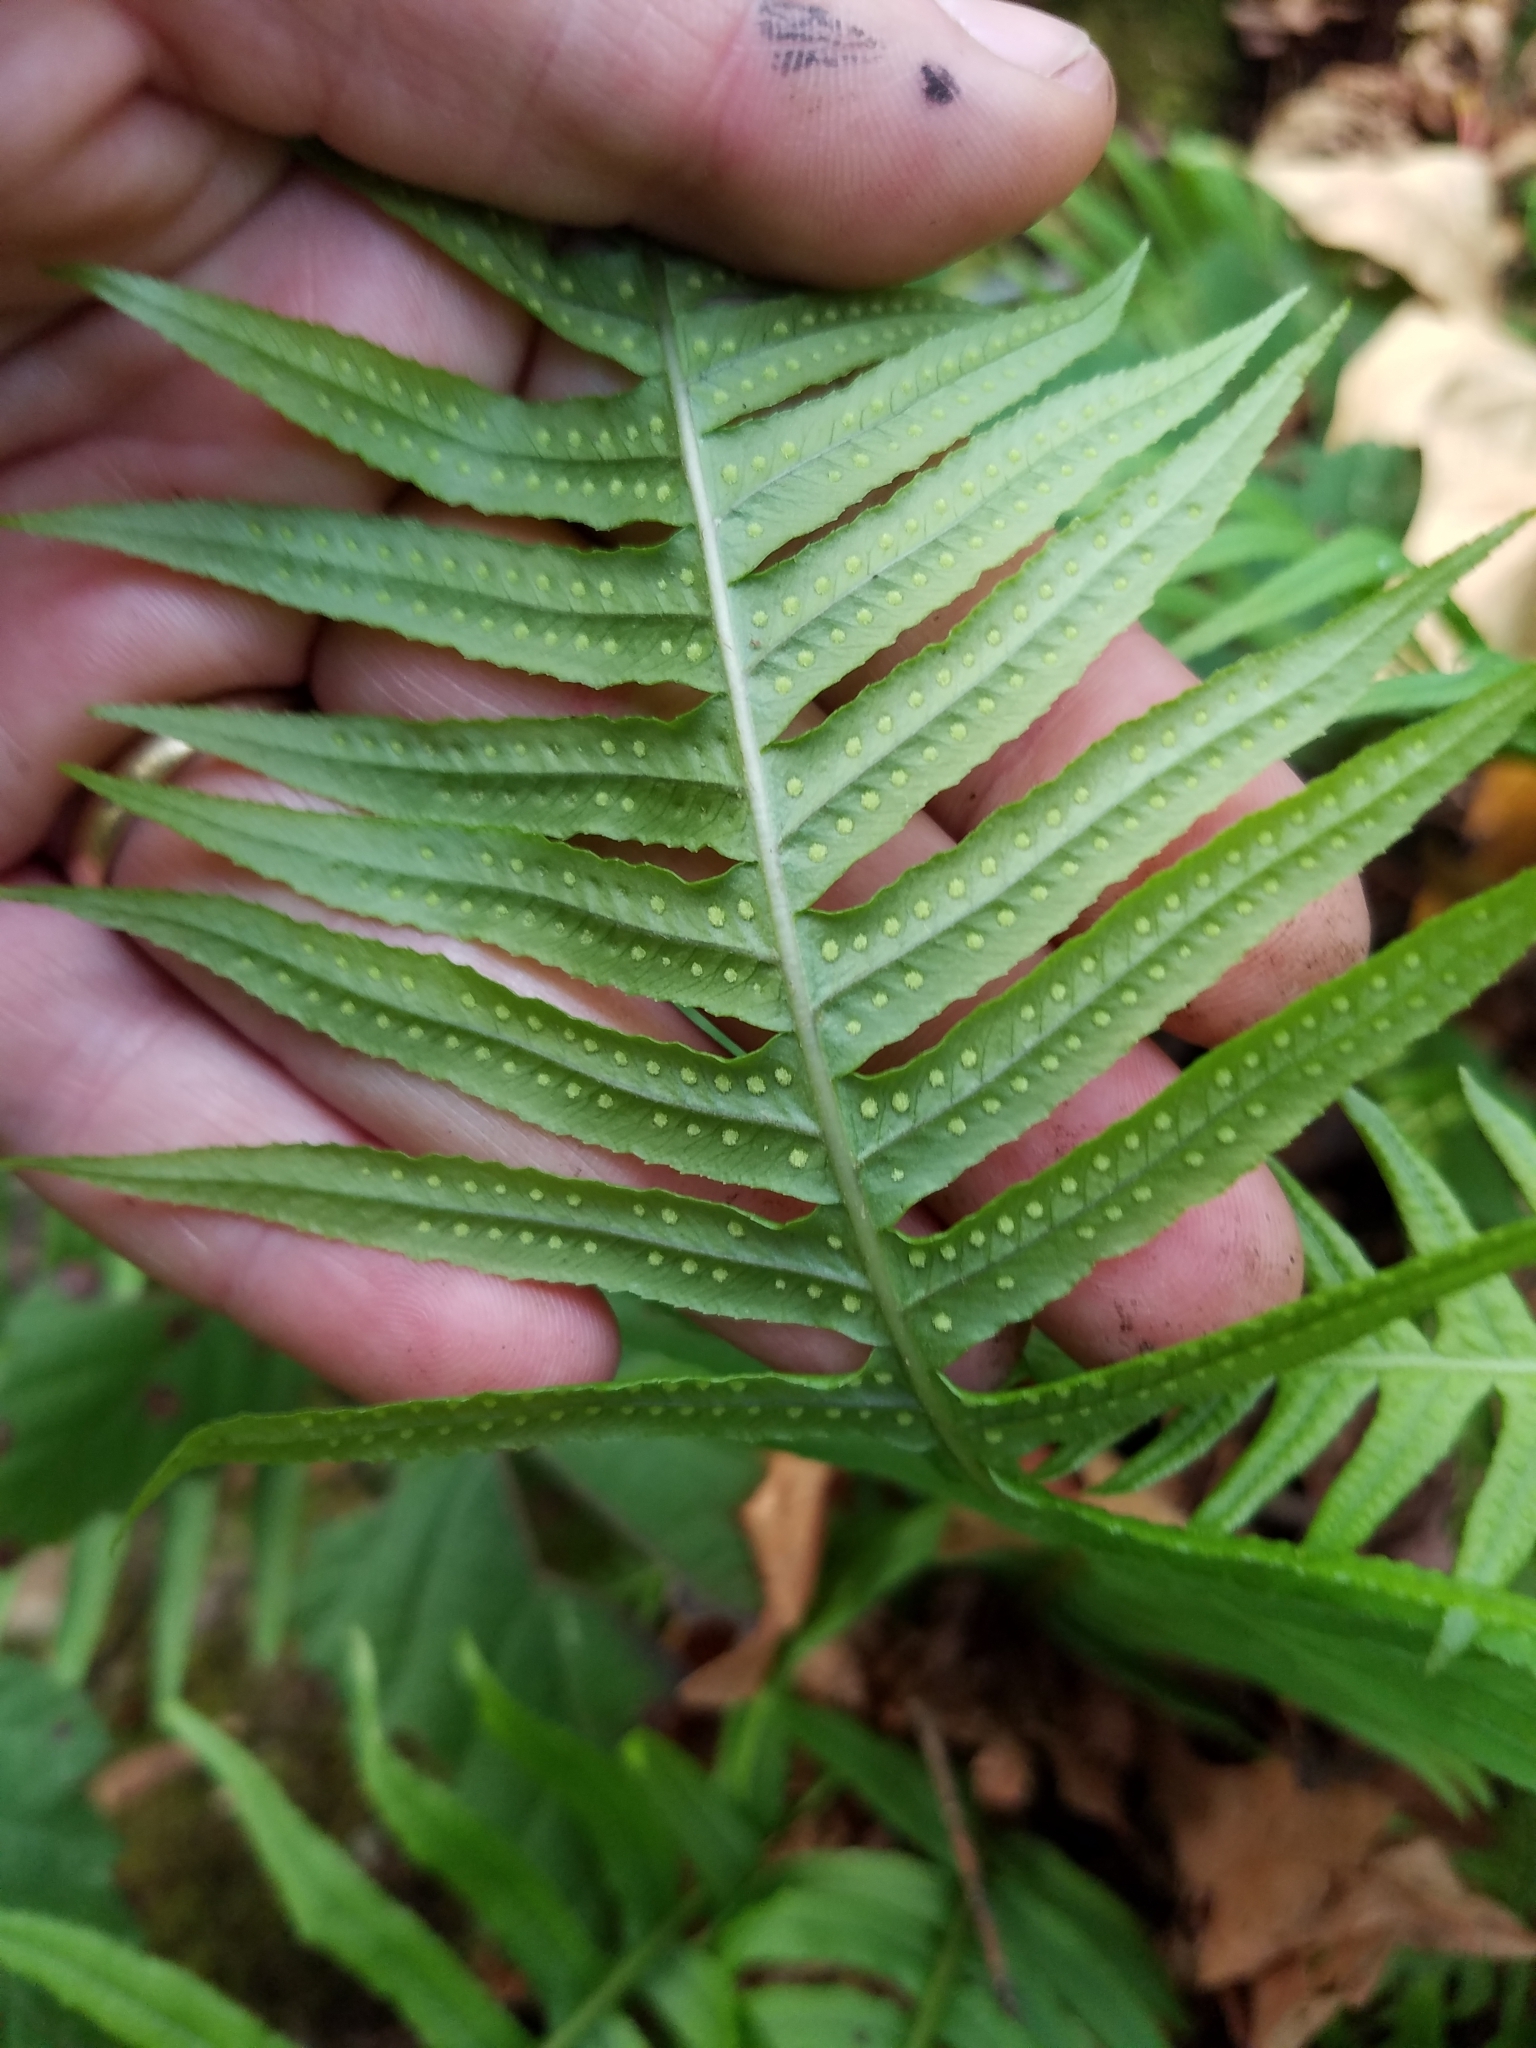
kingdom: Plantae
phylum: Tracheophyta
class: Polypodiopsida
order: Polypodiales
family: Polypodiaceae
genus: Polypodium
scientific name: Polypodium glycyrrhiza
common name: Licorice fern
